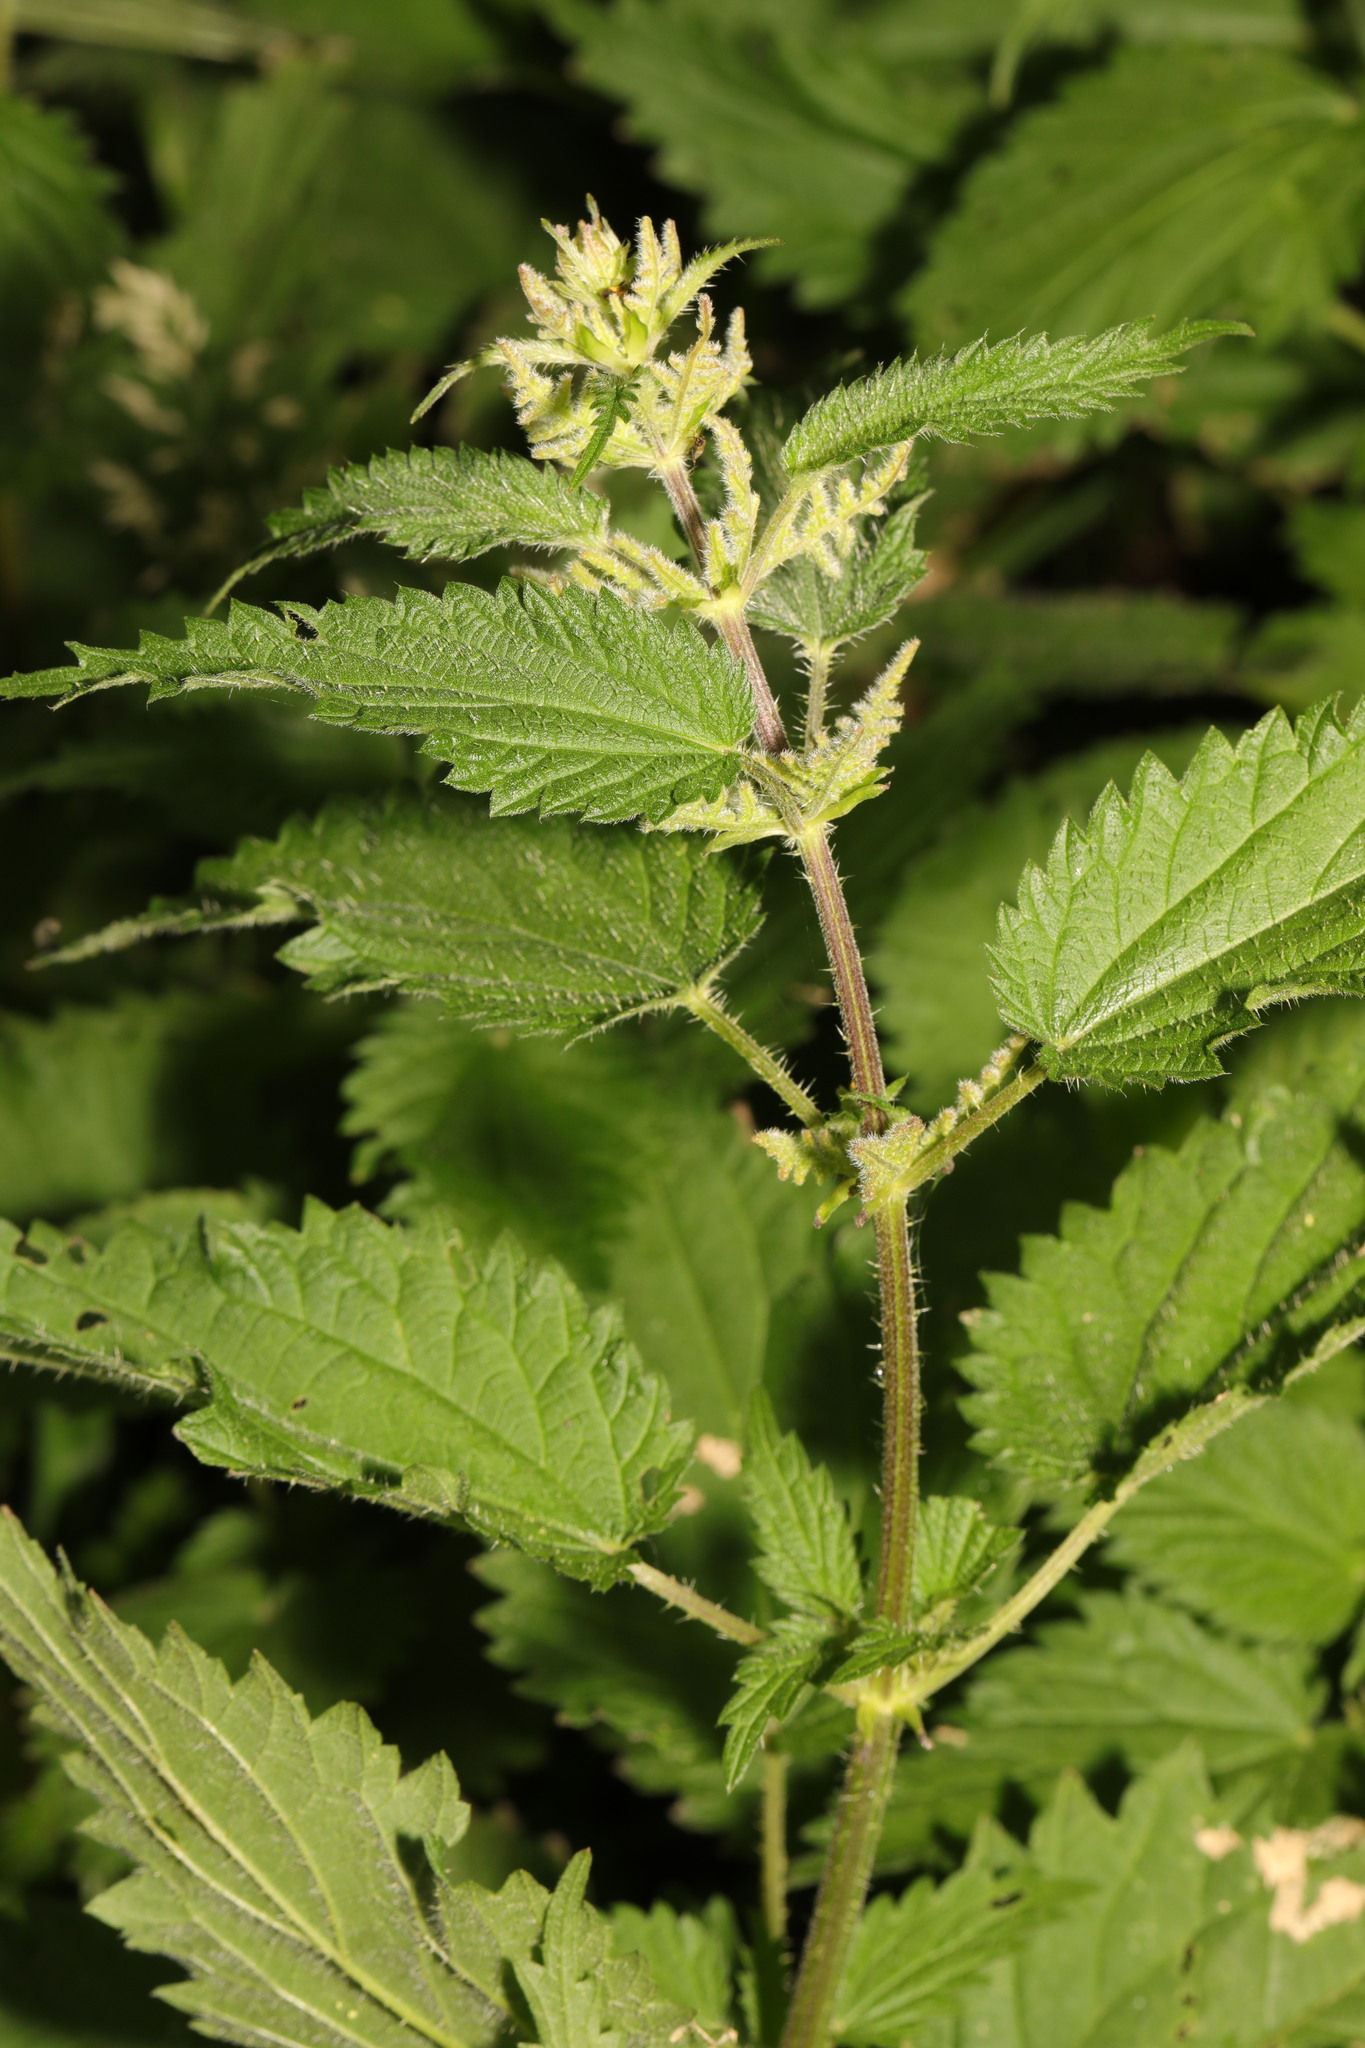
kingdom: Plantae
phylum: Tracheophyta
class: Magnoliopsida
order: Rosales
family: Urticaceae
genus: Urtica
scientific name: Urtica dioica
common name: Common nettle
